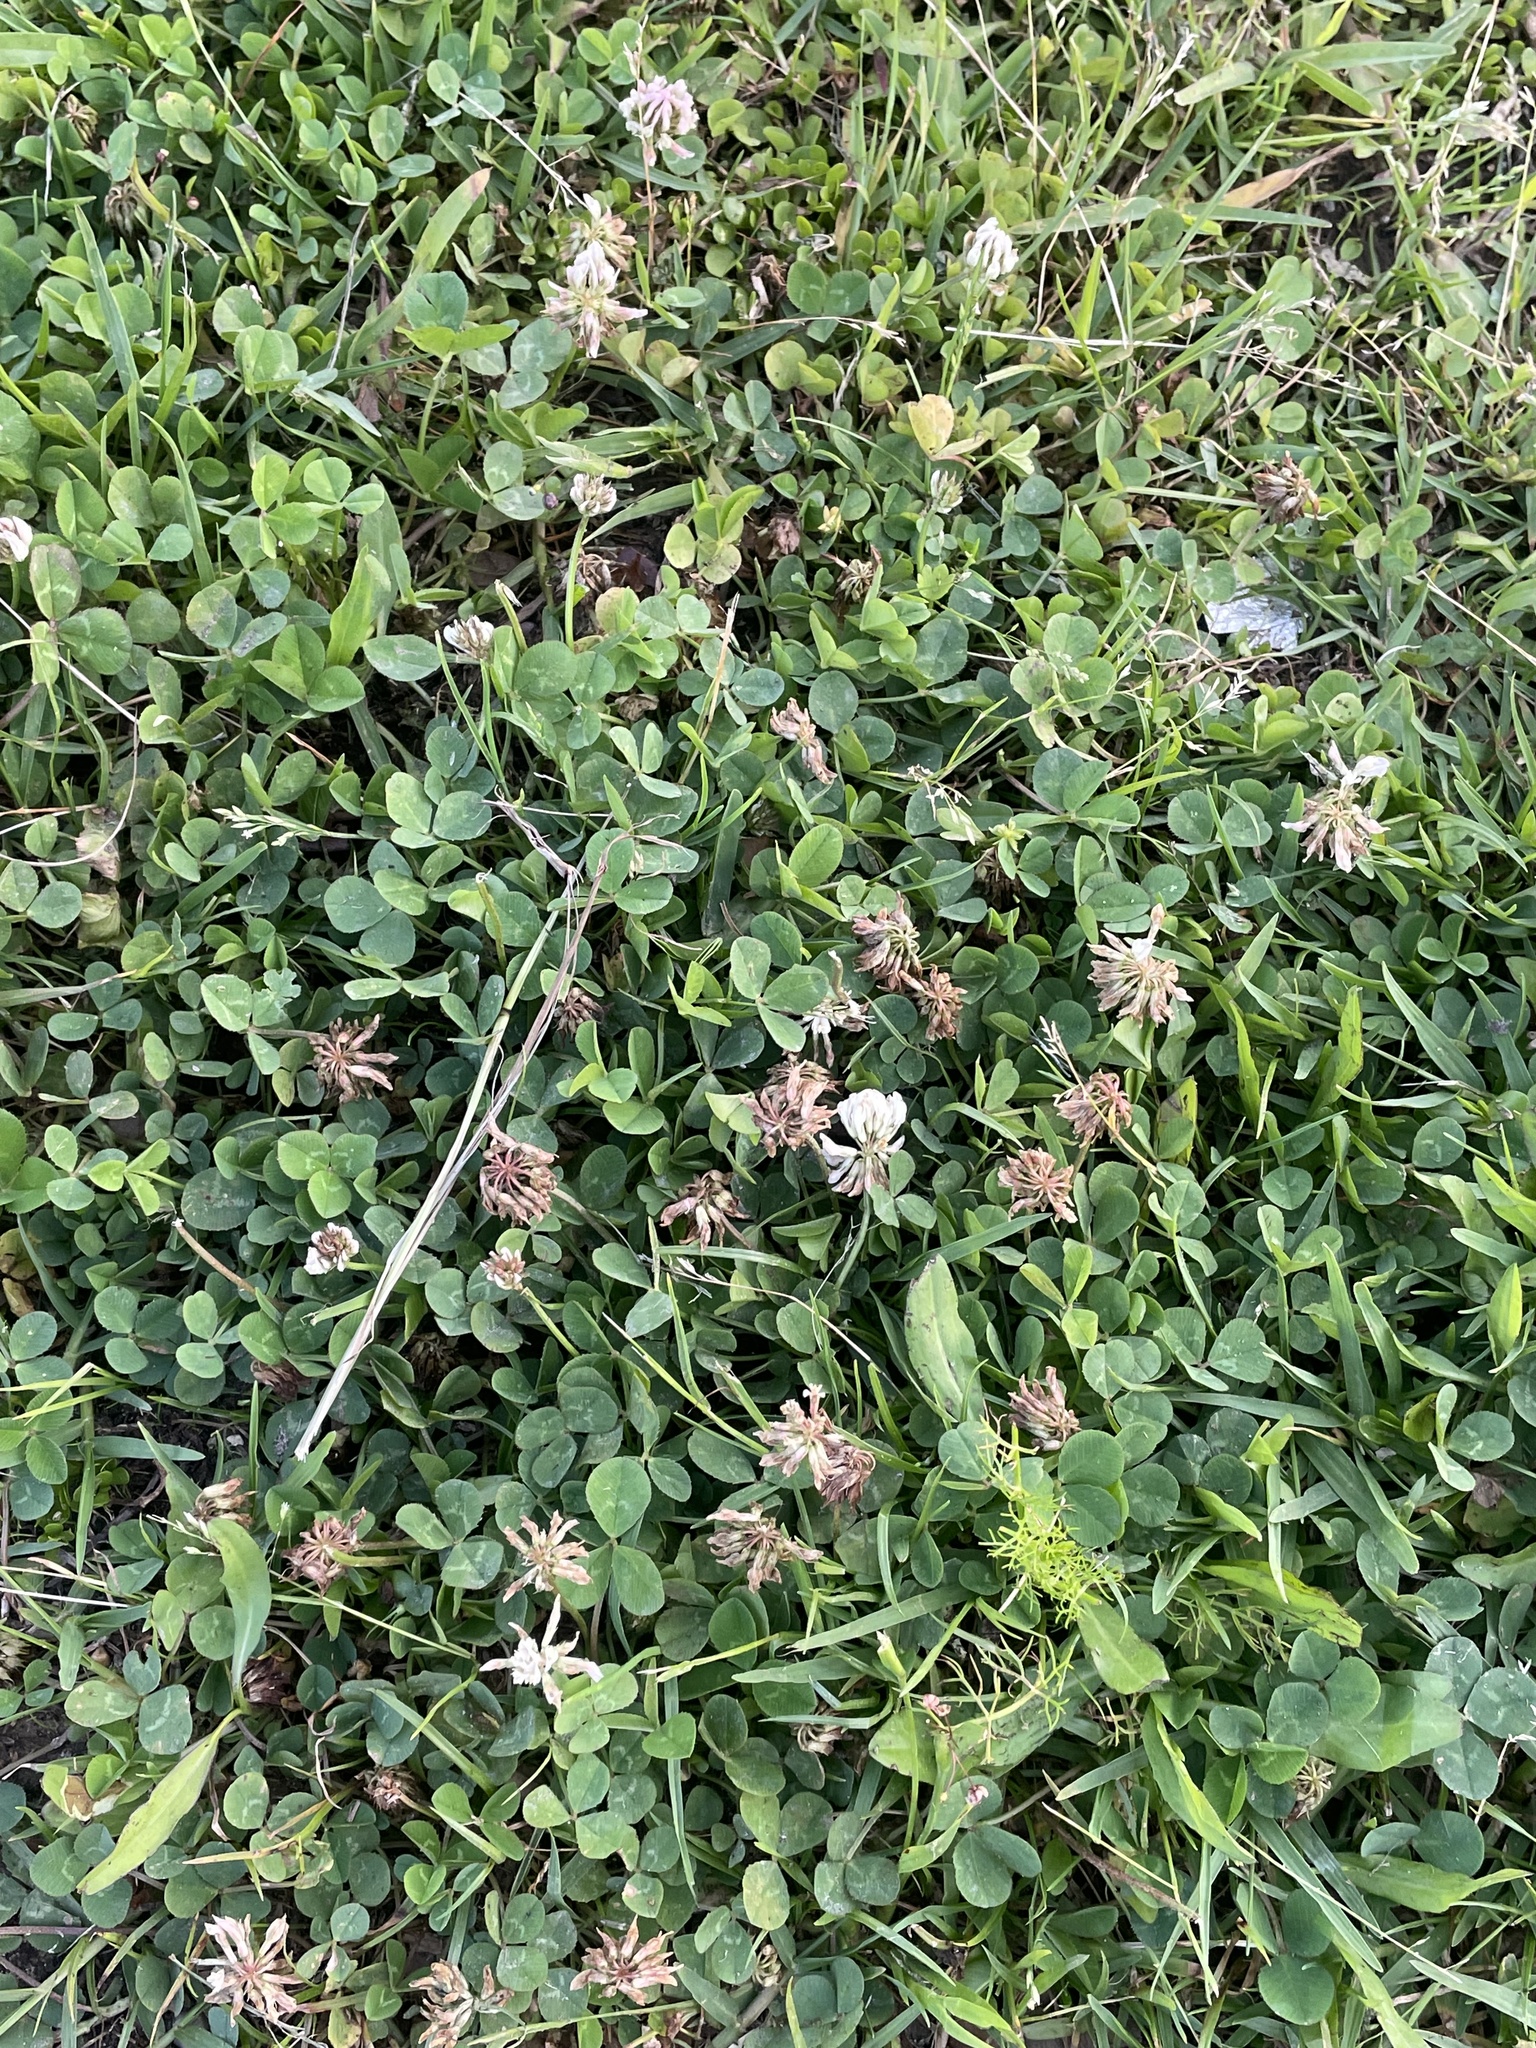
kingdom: Plantae
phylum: Tracheophyta
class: Magnoliopsida
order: Fabales
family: Fabaceae
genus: Trifolium
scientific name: Trifolium repens
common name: White clover
